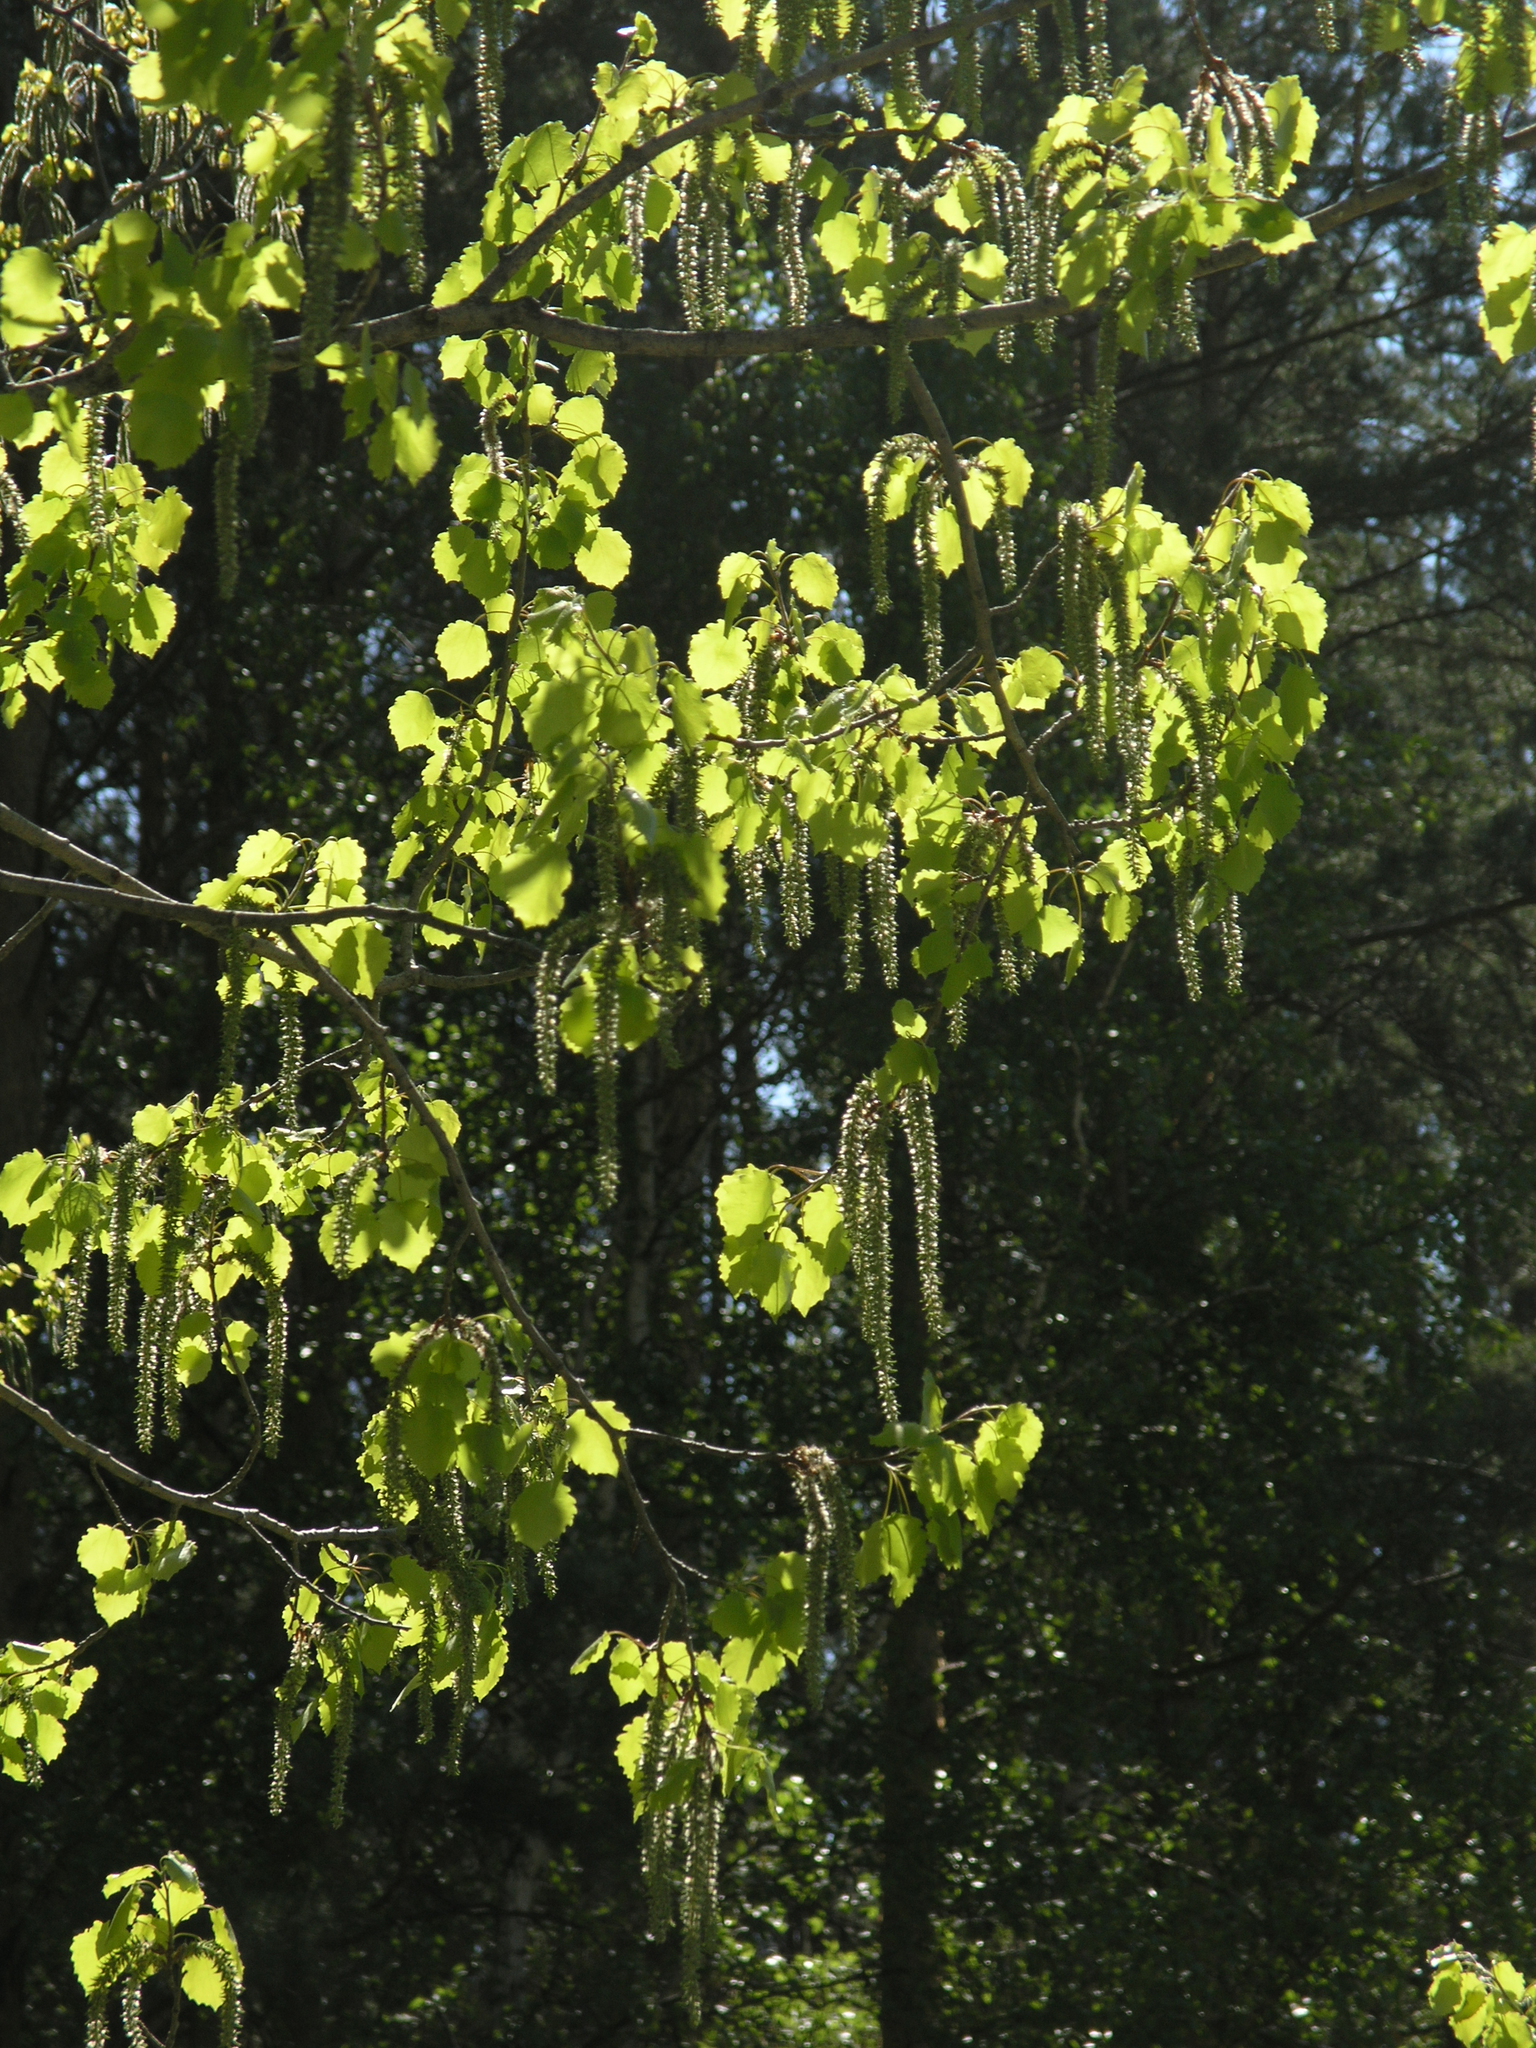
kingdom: Plantae
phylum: Tracheophyta
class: Magnoliopsida
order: Malpighiales
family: Salicaceae
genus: Populus
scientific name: Populus tremula
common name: European aspen
